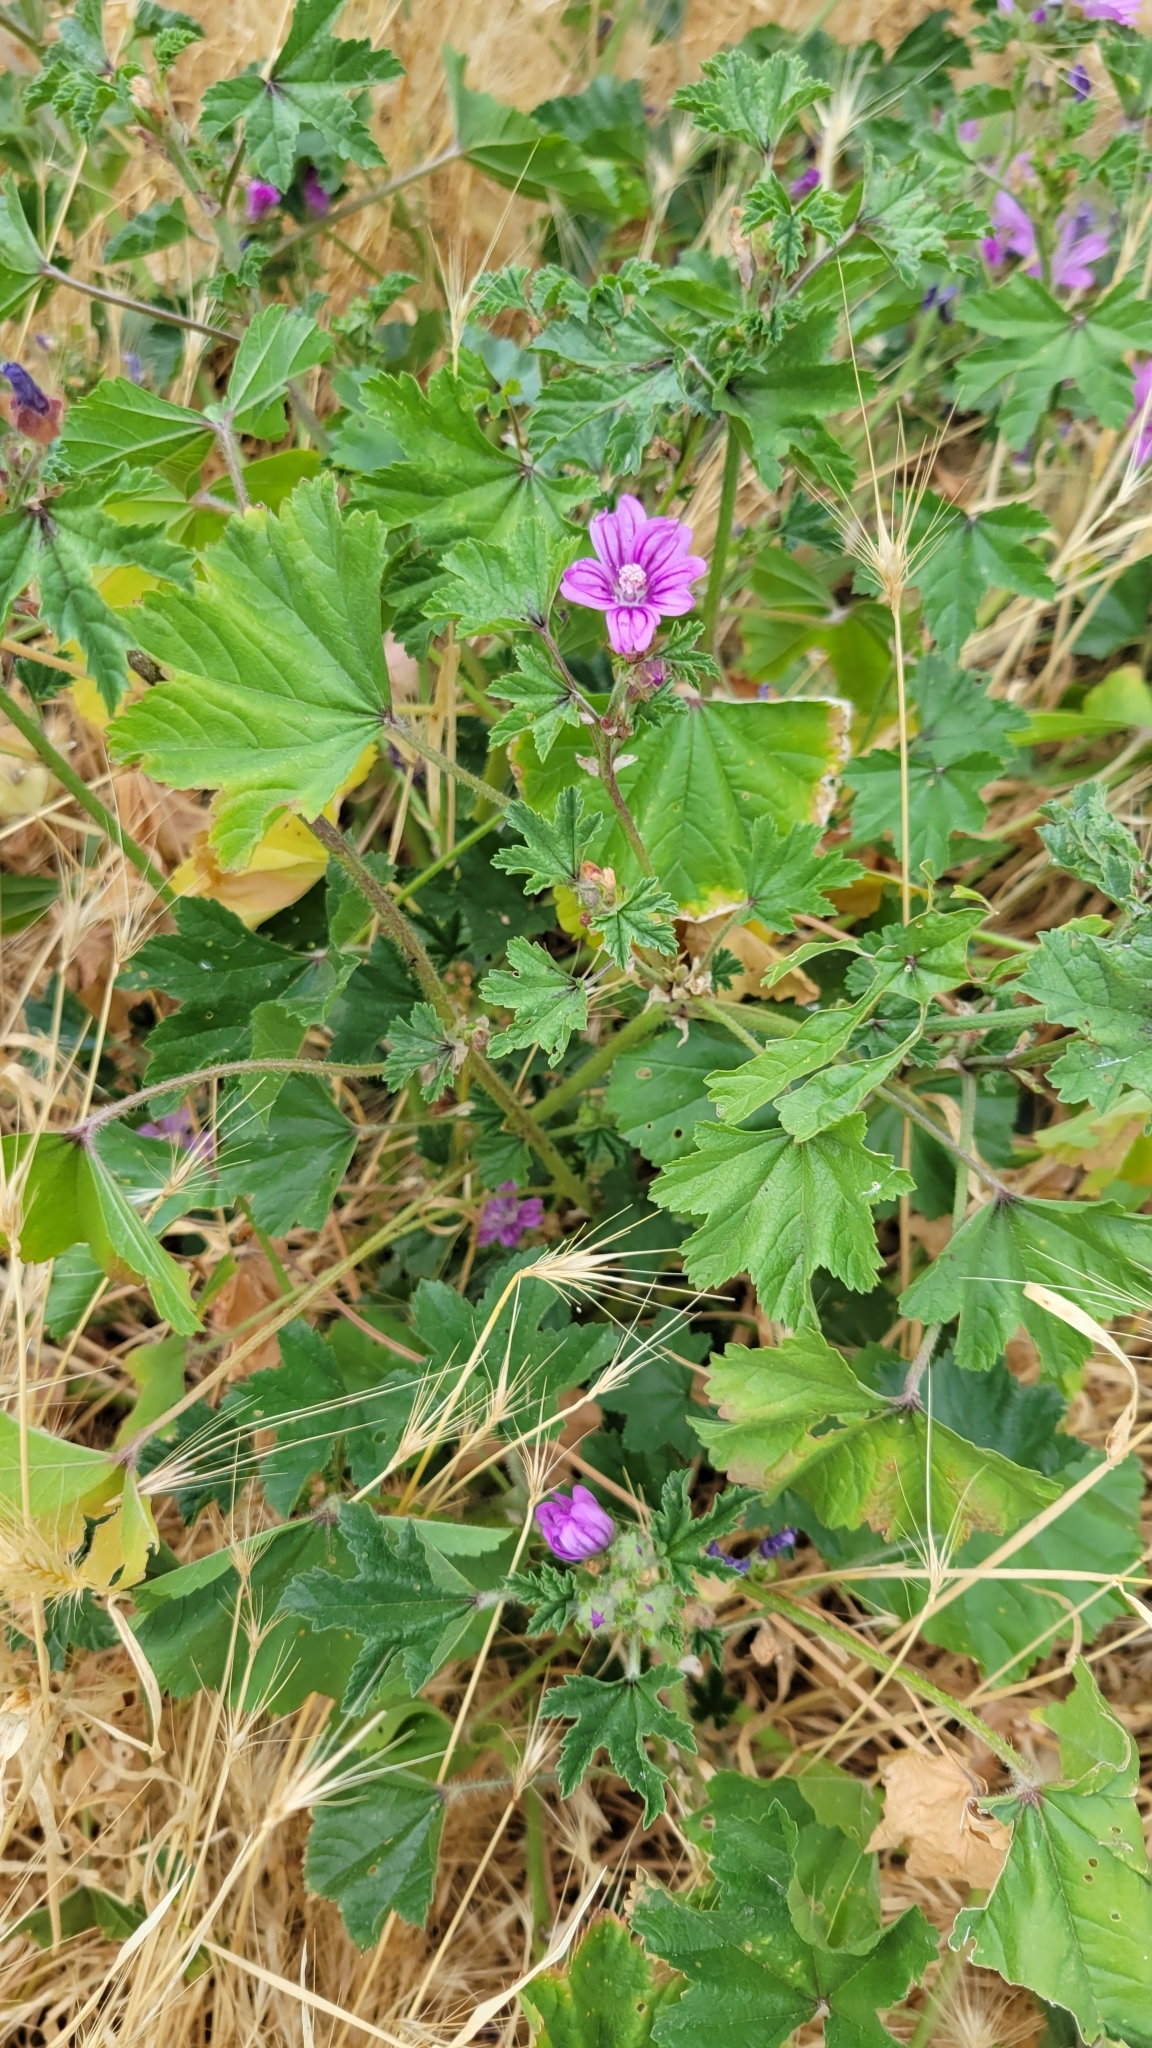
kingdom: Plantae
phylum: Tracheophyta
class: Magnoliopsida
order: Malvales
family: Malvaceae
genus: Malva
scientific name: Malva sylvestris
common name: Common mallow
